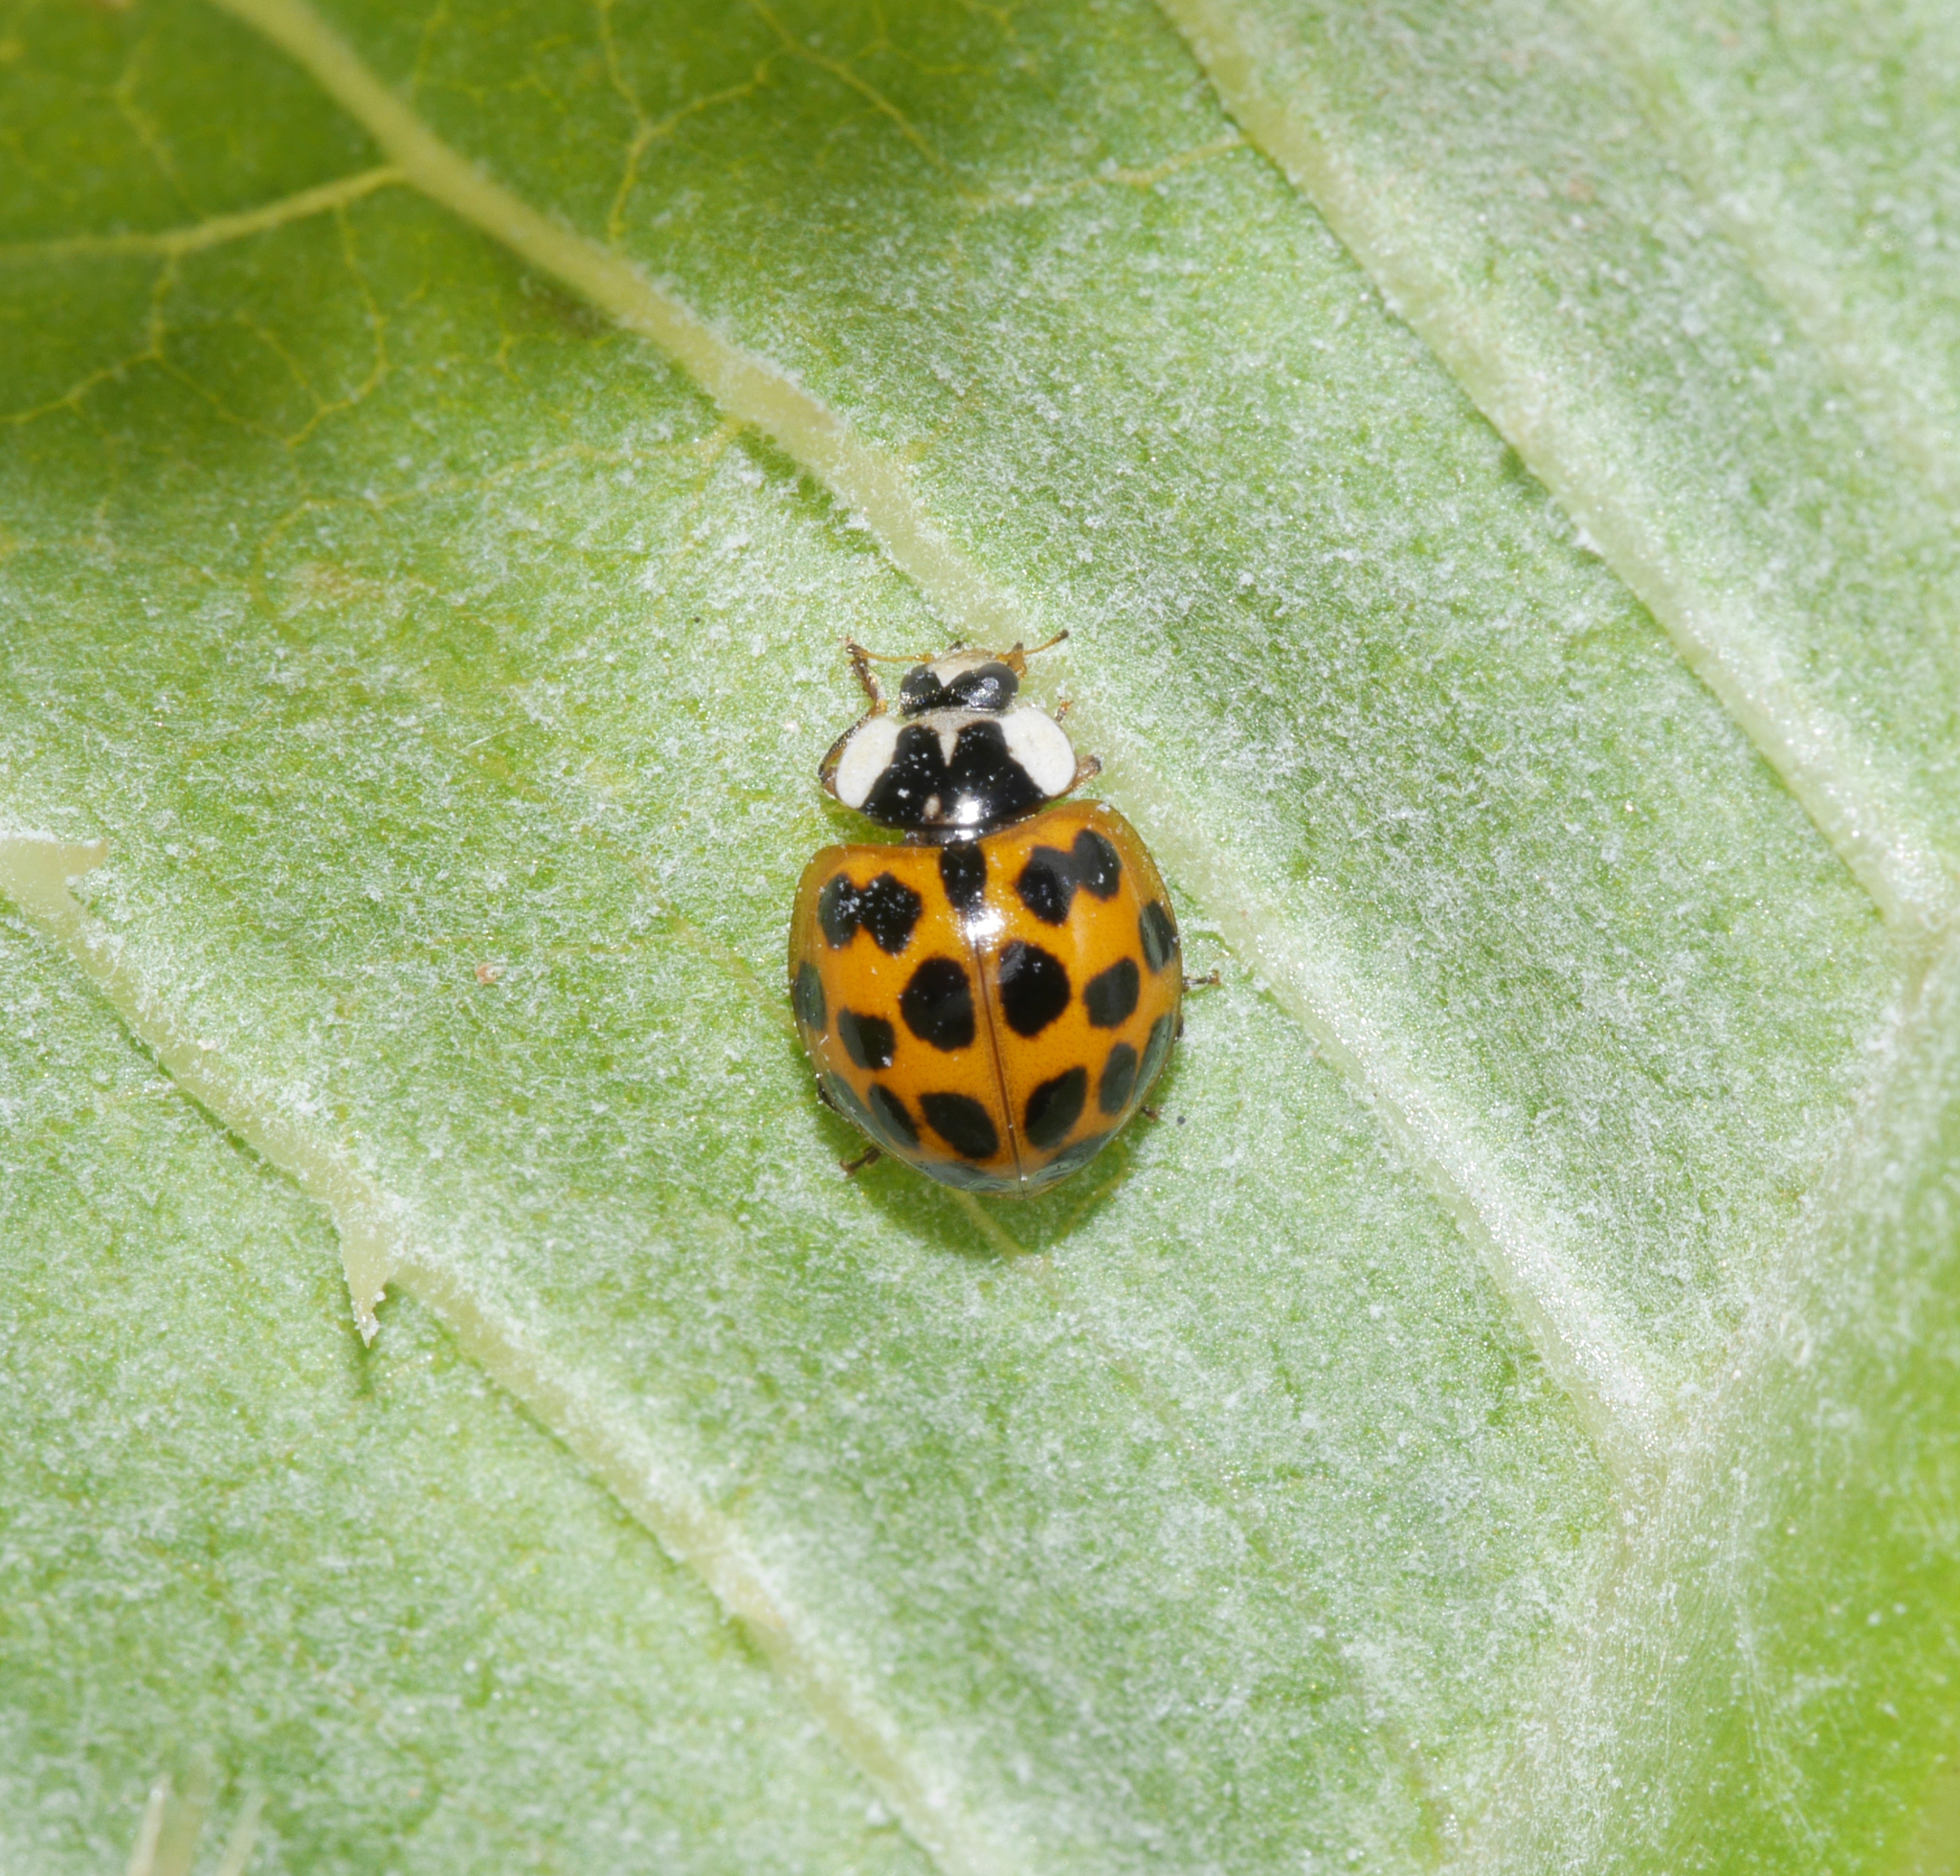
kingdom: Animalia
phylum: Arthropoda
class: Insecta
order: Coleoptera
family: Coccinellidae
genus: Harmonia
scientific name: Harmonia axyridis
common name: Harlequin ladybird
